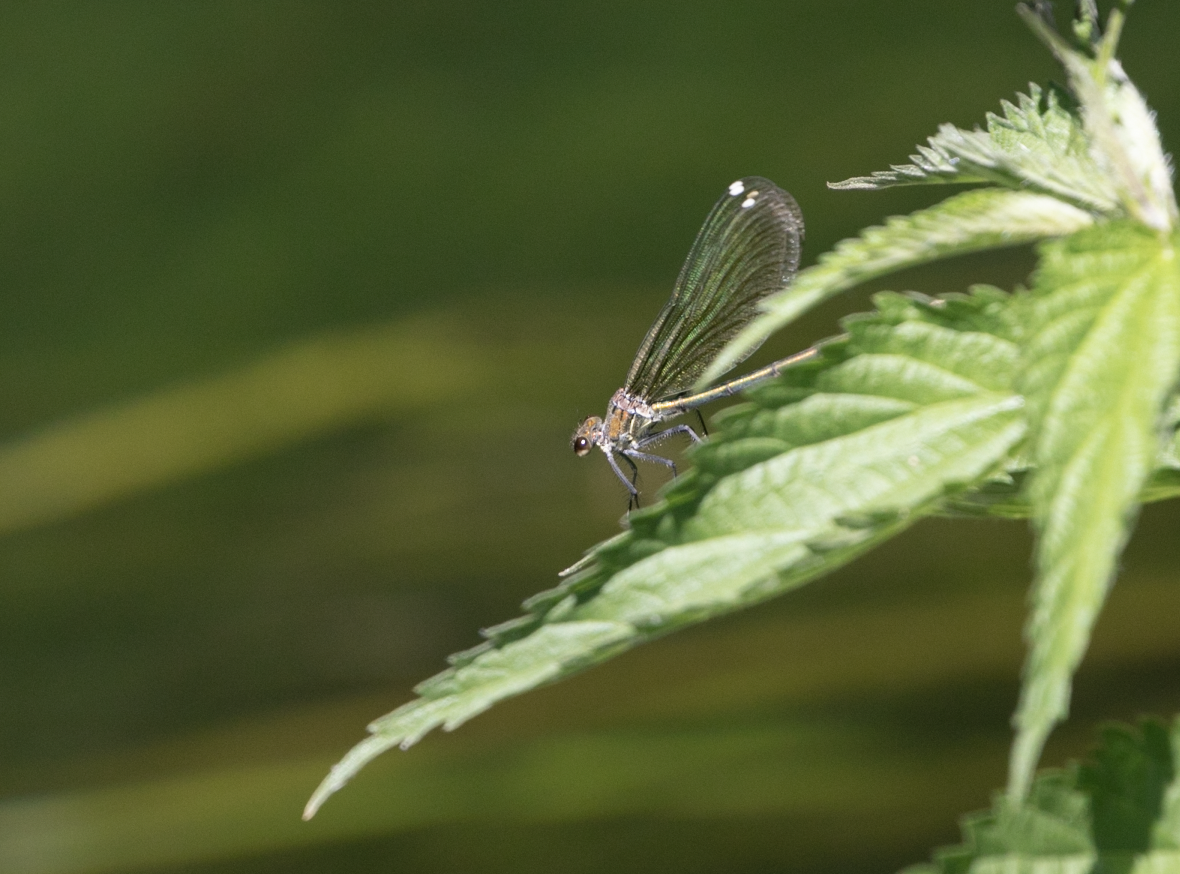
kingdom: Animalia
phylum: Arthropoda
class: Insecta
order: Odonata
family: Calopterygidae
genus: Calopteryx
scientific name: Calopteryx splendens
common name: Banded demoiselle
